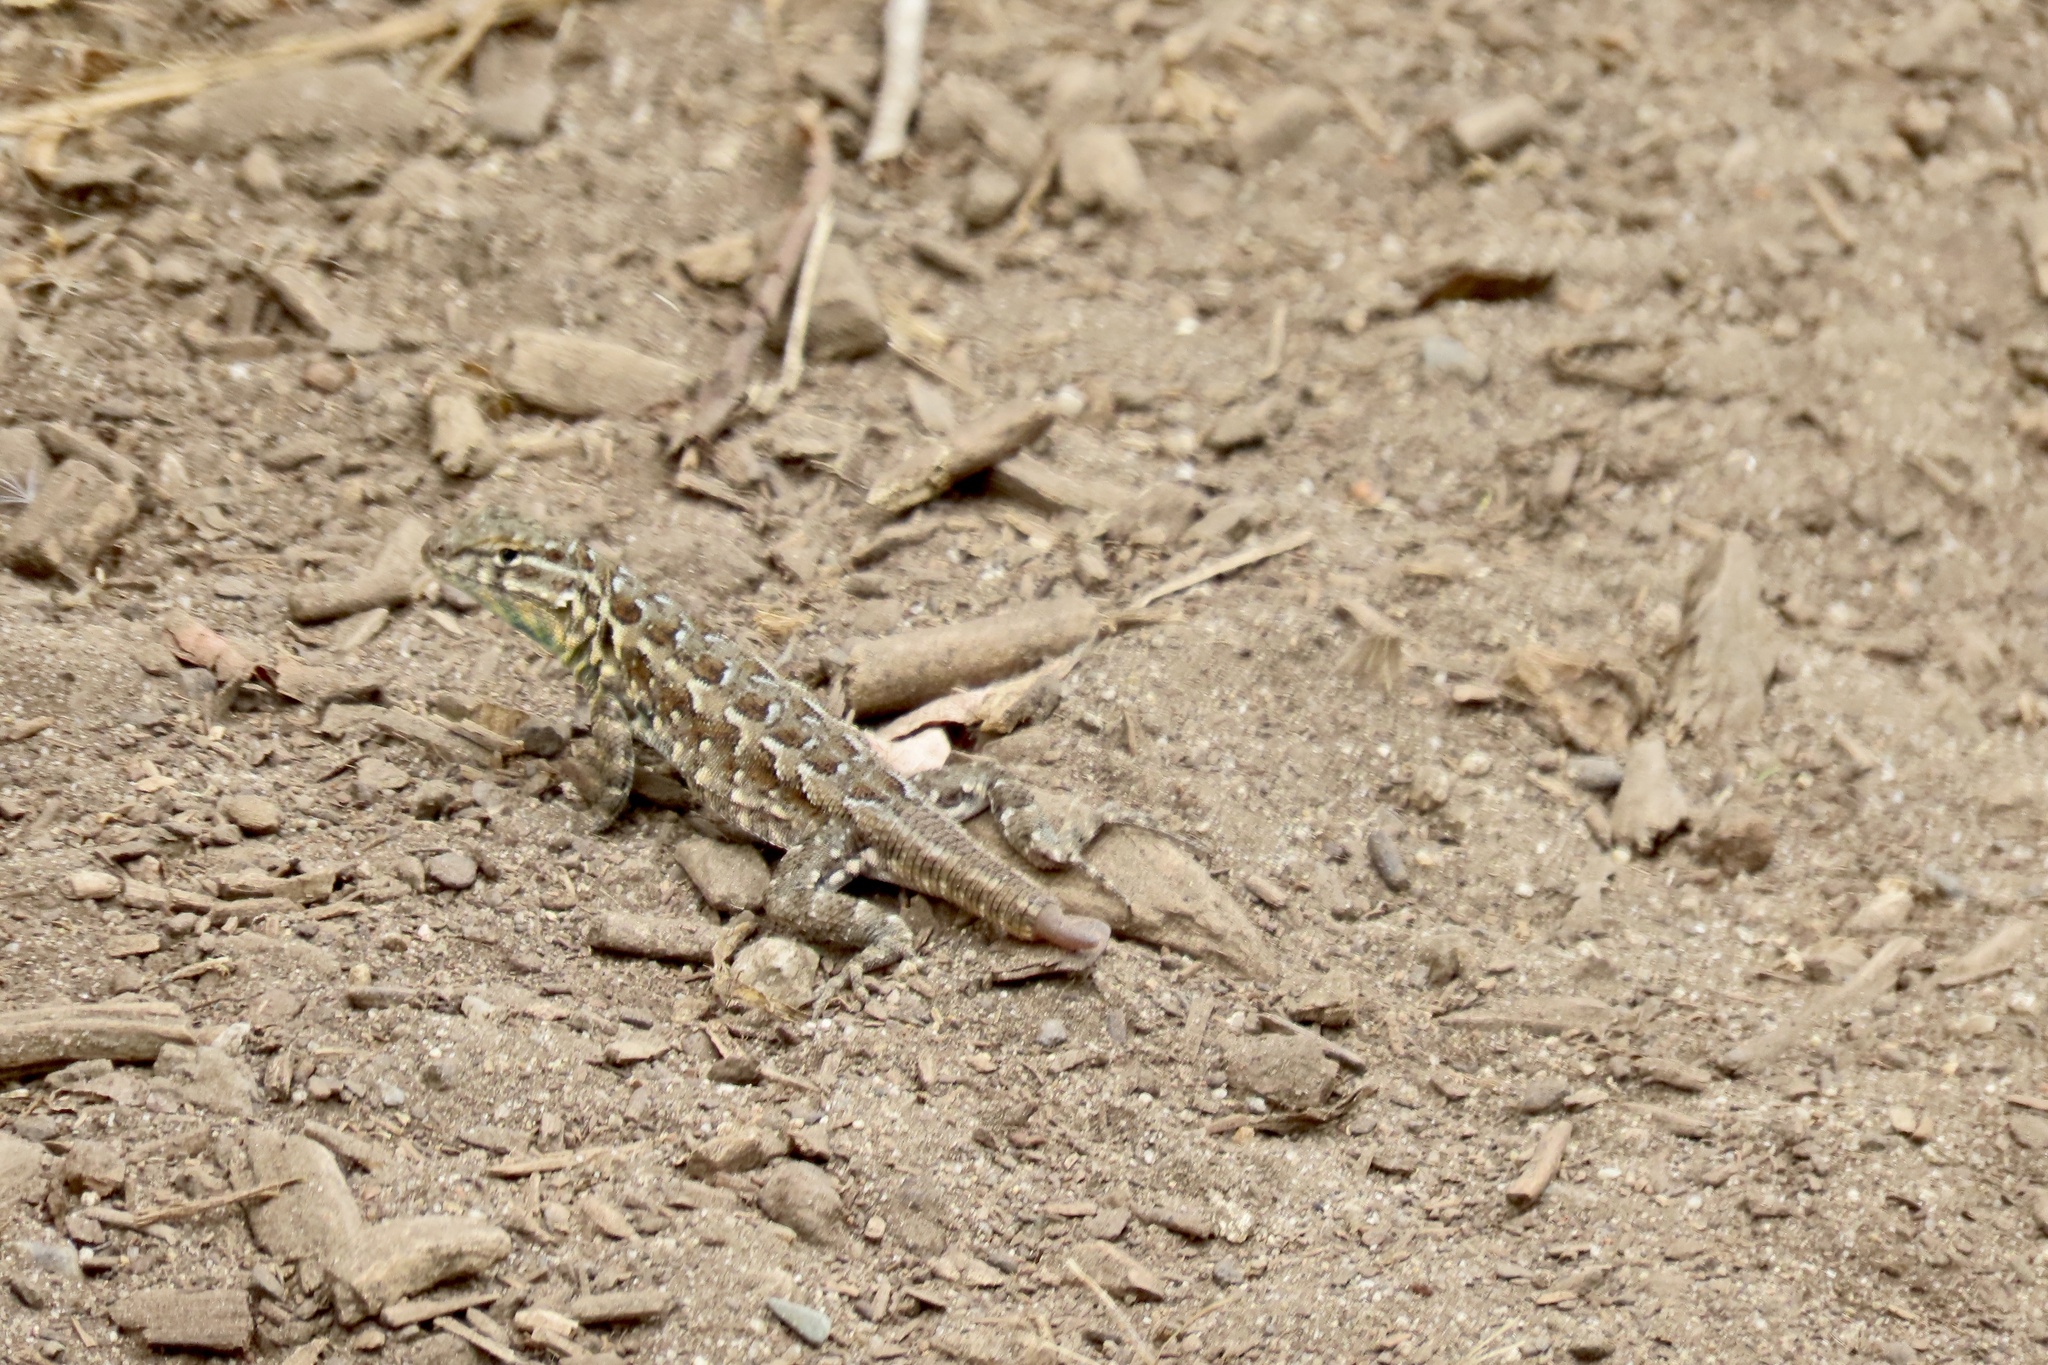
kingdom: Animalia
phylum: Chordata
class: Squamata
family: Phrynosomatidae
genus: Uta
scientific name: Uta stansburiana
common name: Side-blotched lizard
